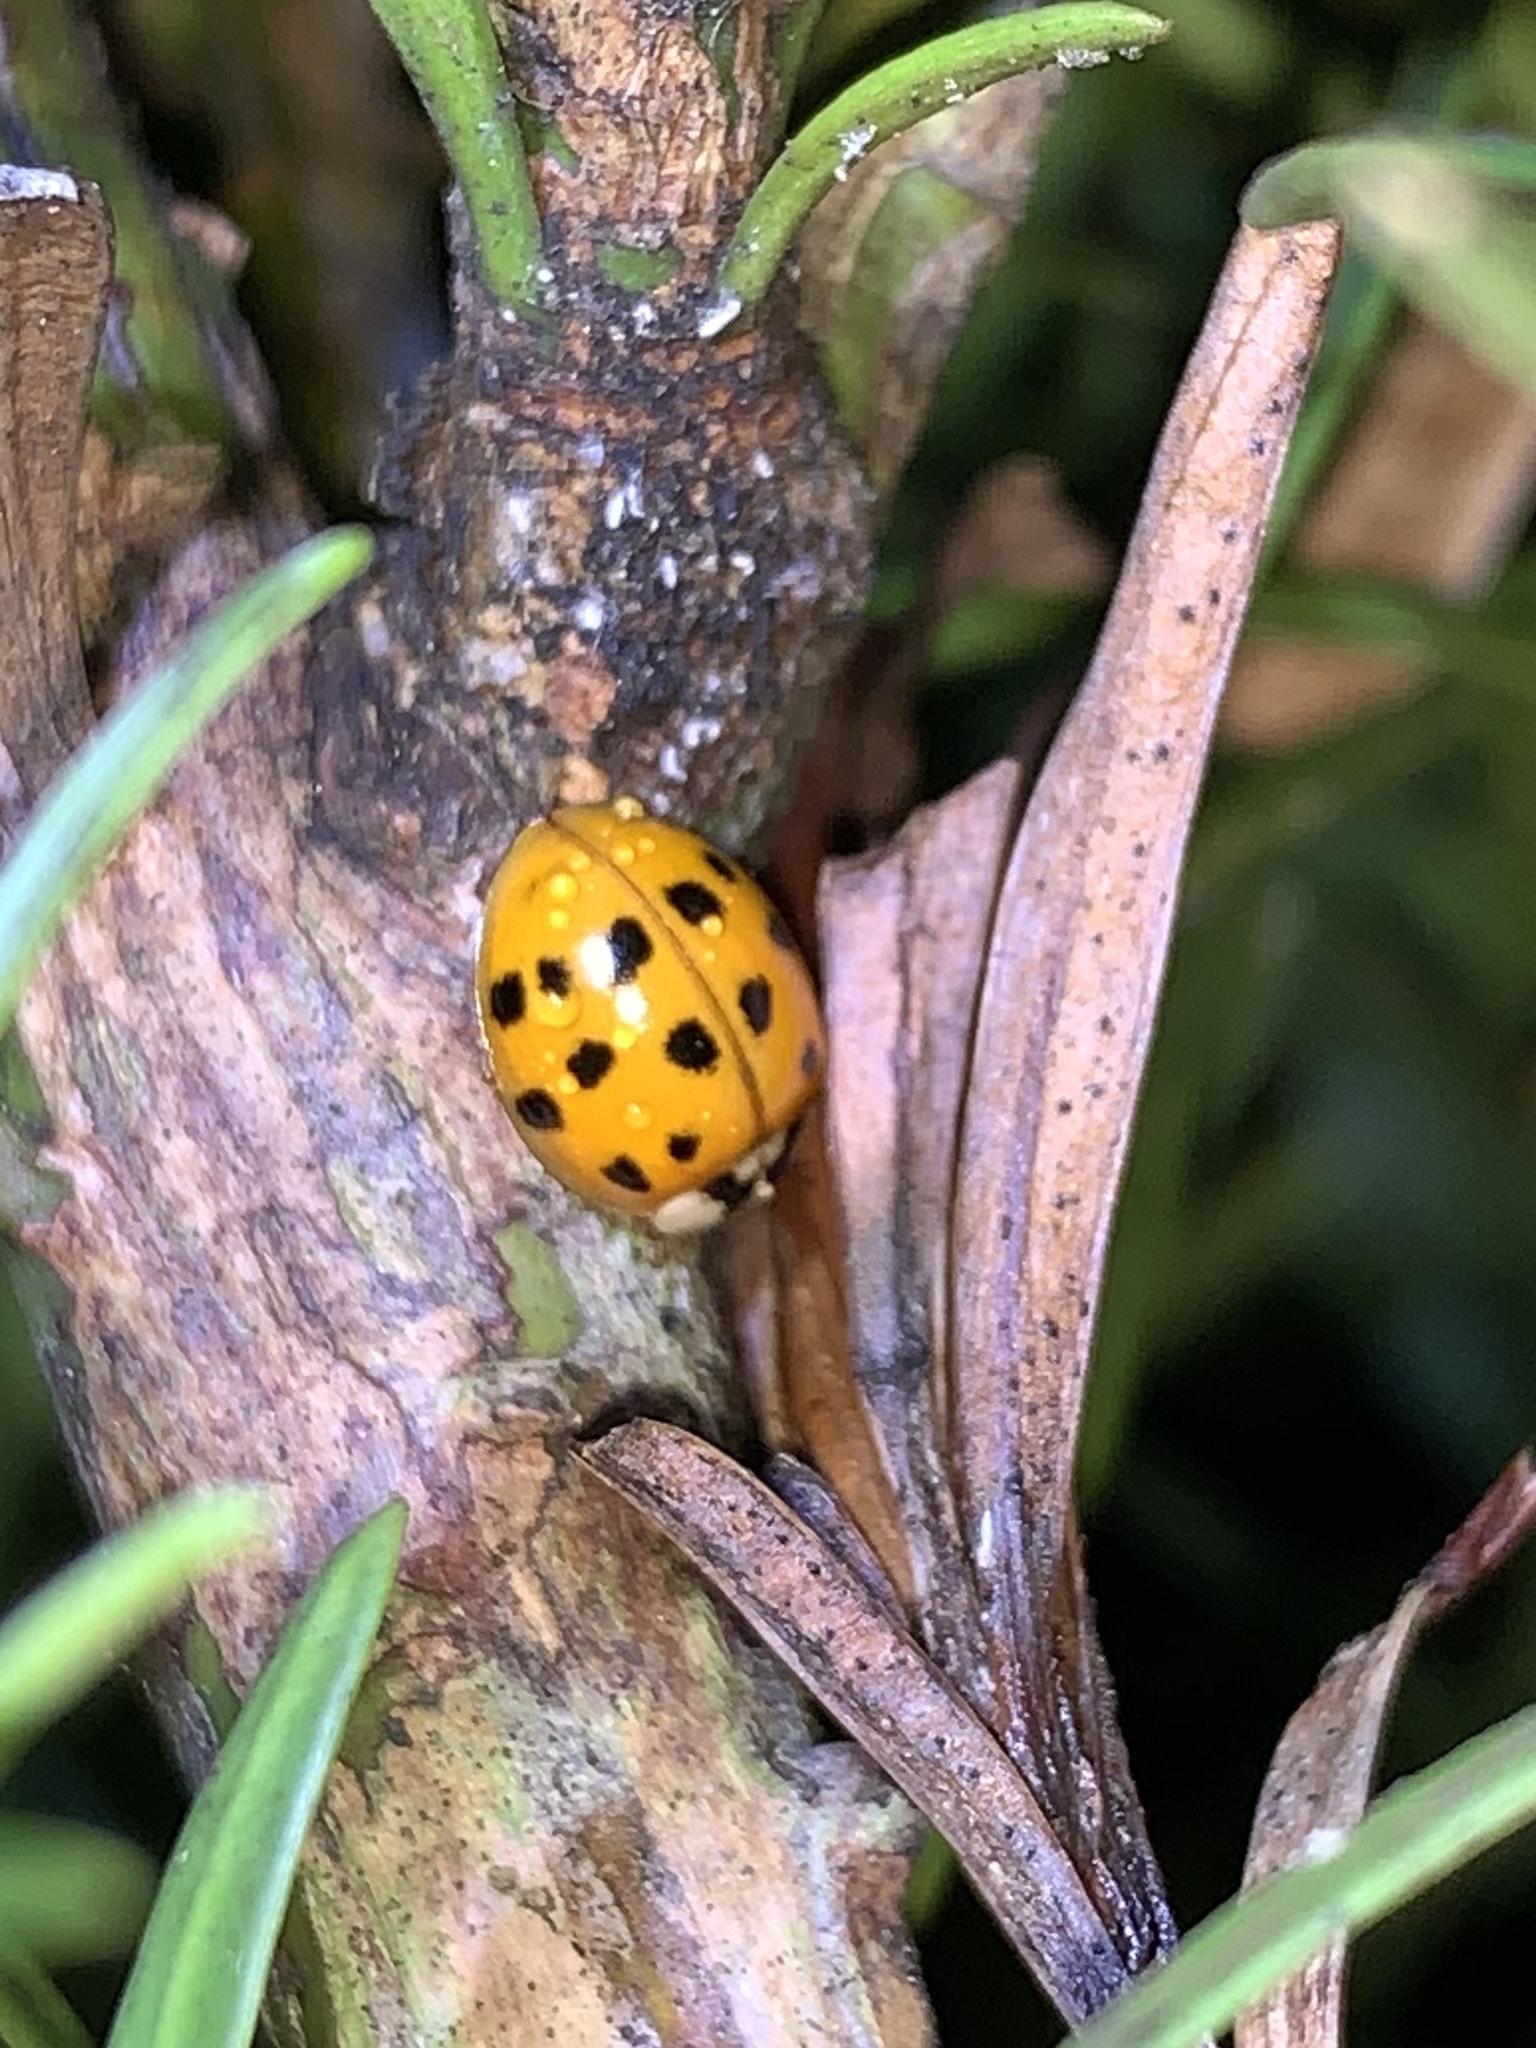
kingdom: Animalia
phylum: Arthropoda
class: Insecta
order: Coleoptera
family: Coccinellidae
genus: Harmonia
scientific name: Harmonia axyridis
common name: Harlequin ladybird
